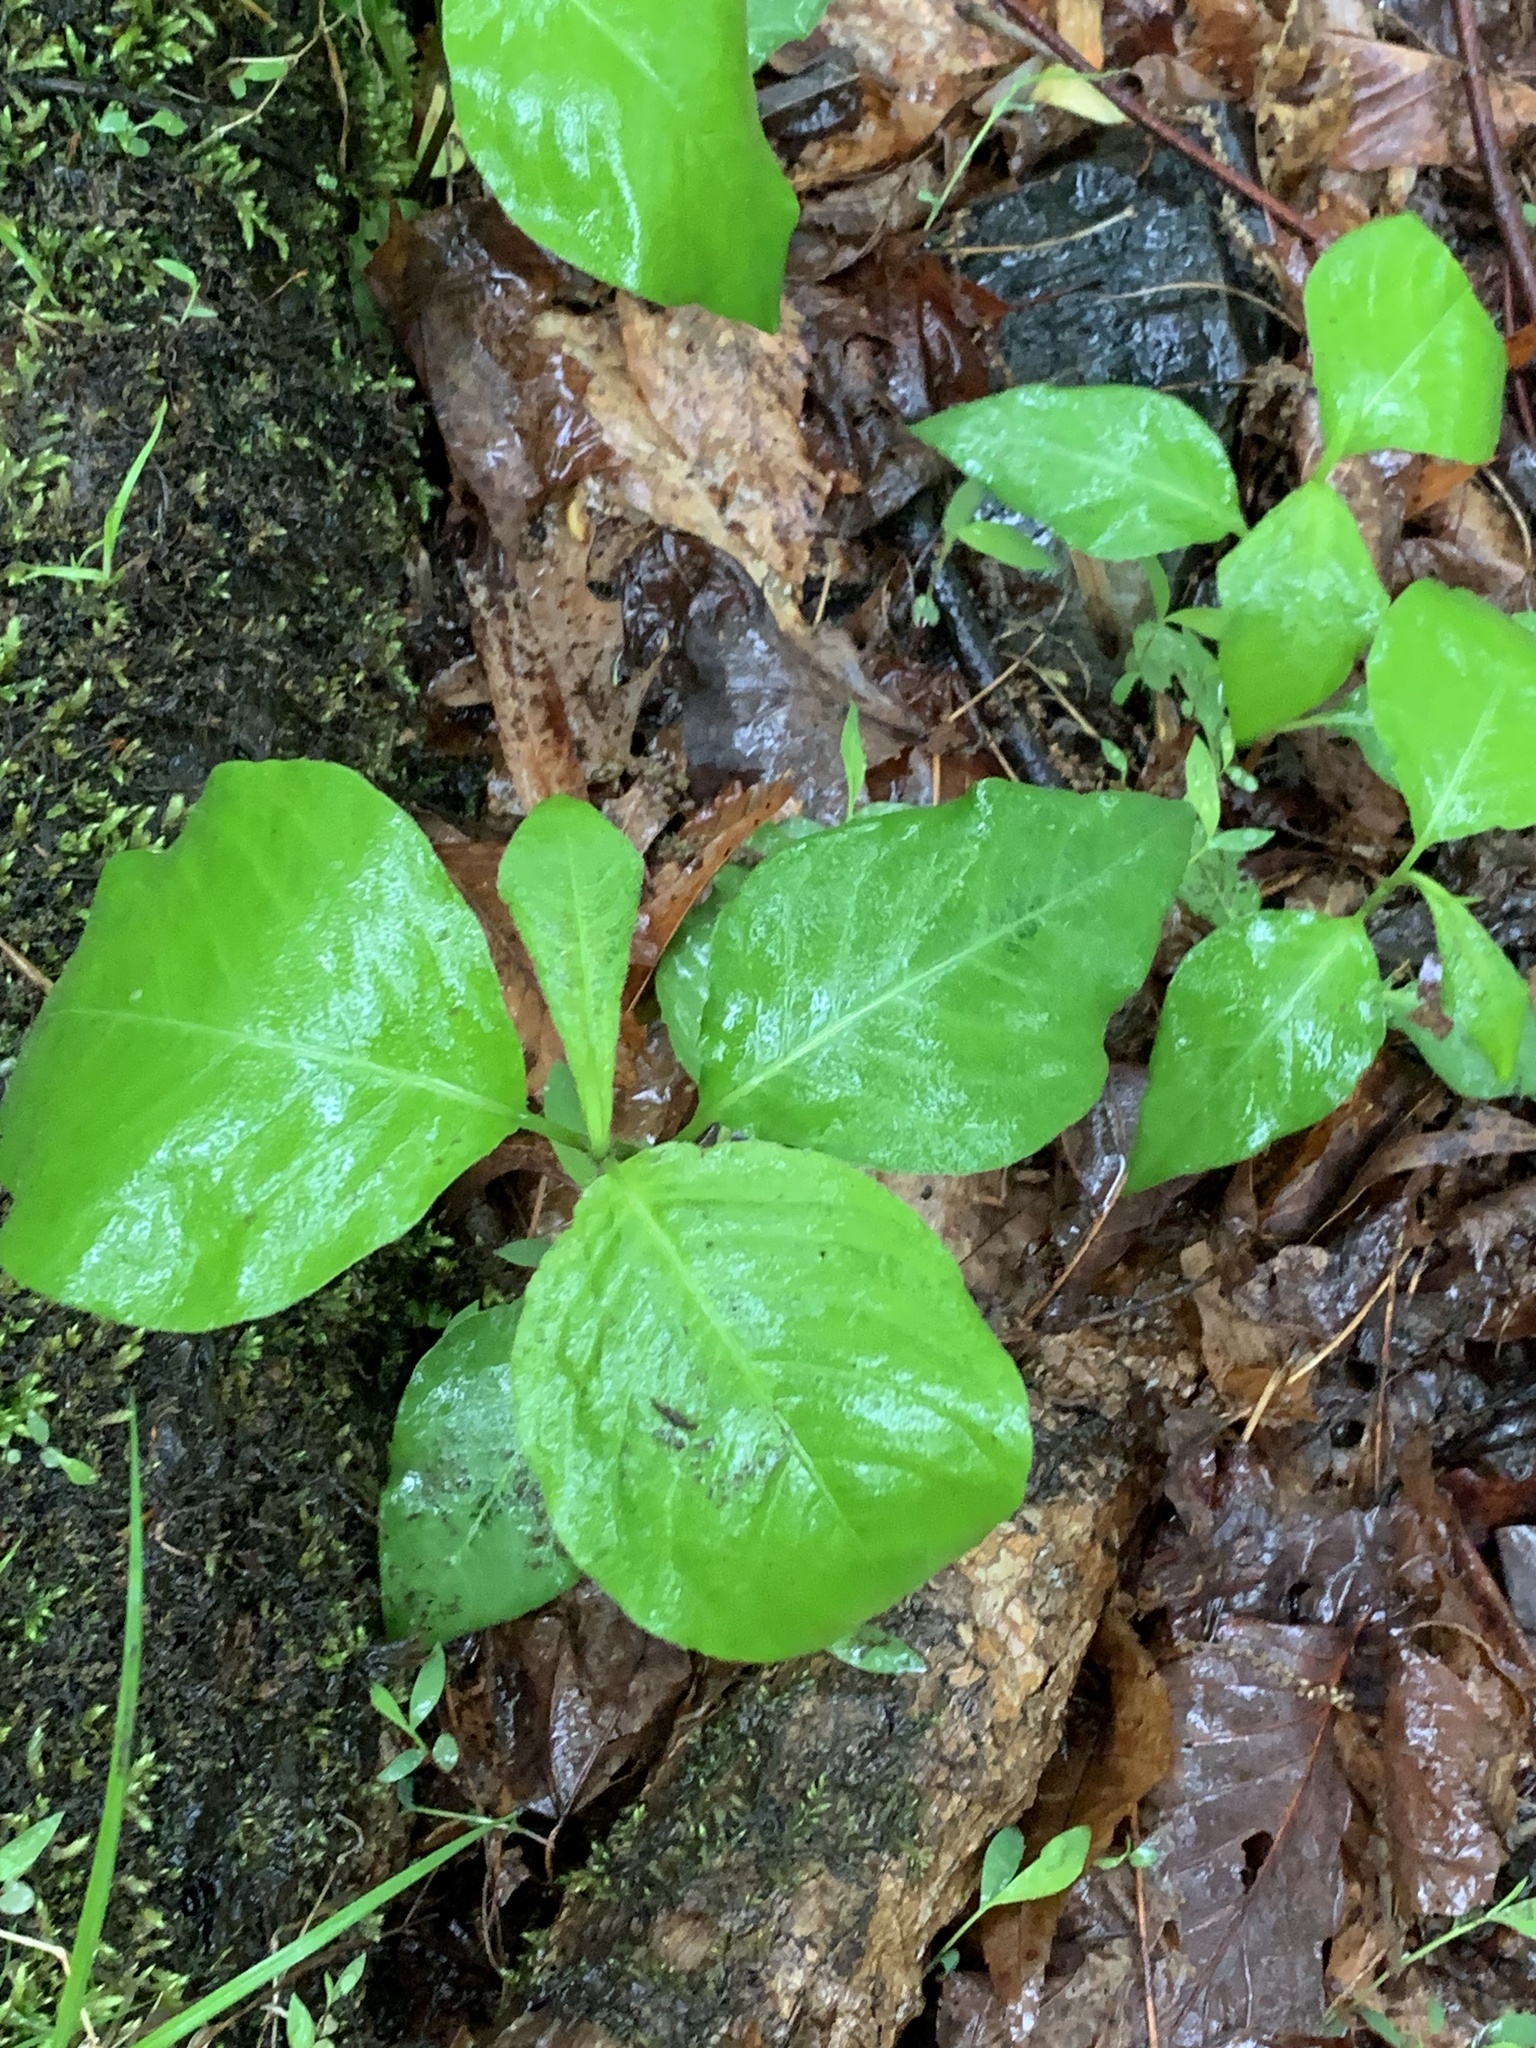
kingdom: Plantae
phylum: Tracheophyta
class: Magnoliopsida
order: Caryophyllales
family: Polygonaceae
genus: Persicaria
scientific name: Persicaria virginiana
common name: Jumpseed
